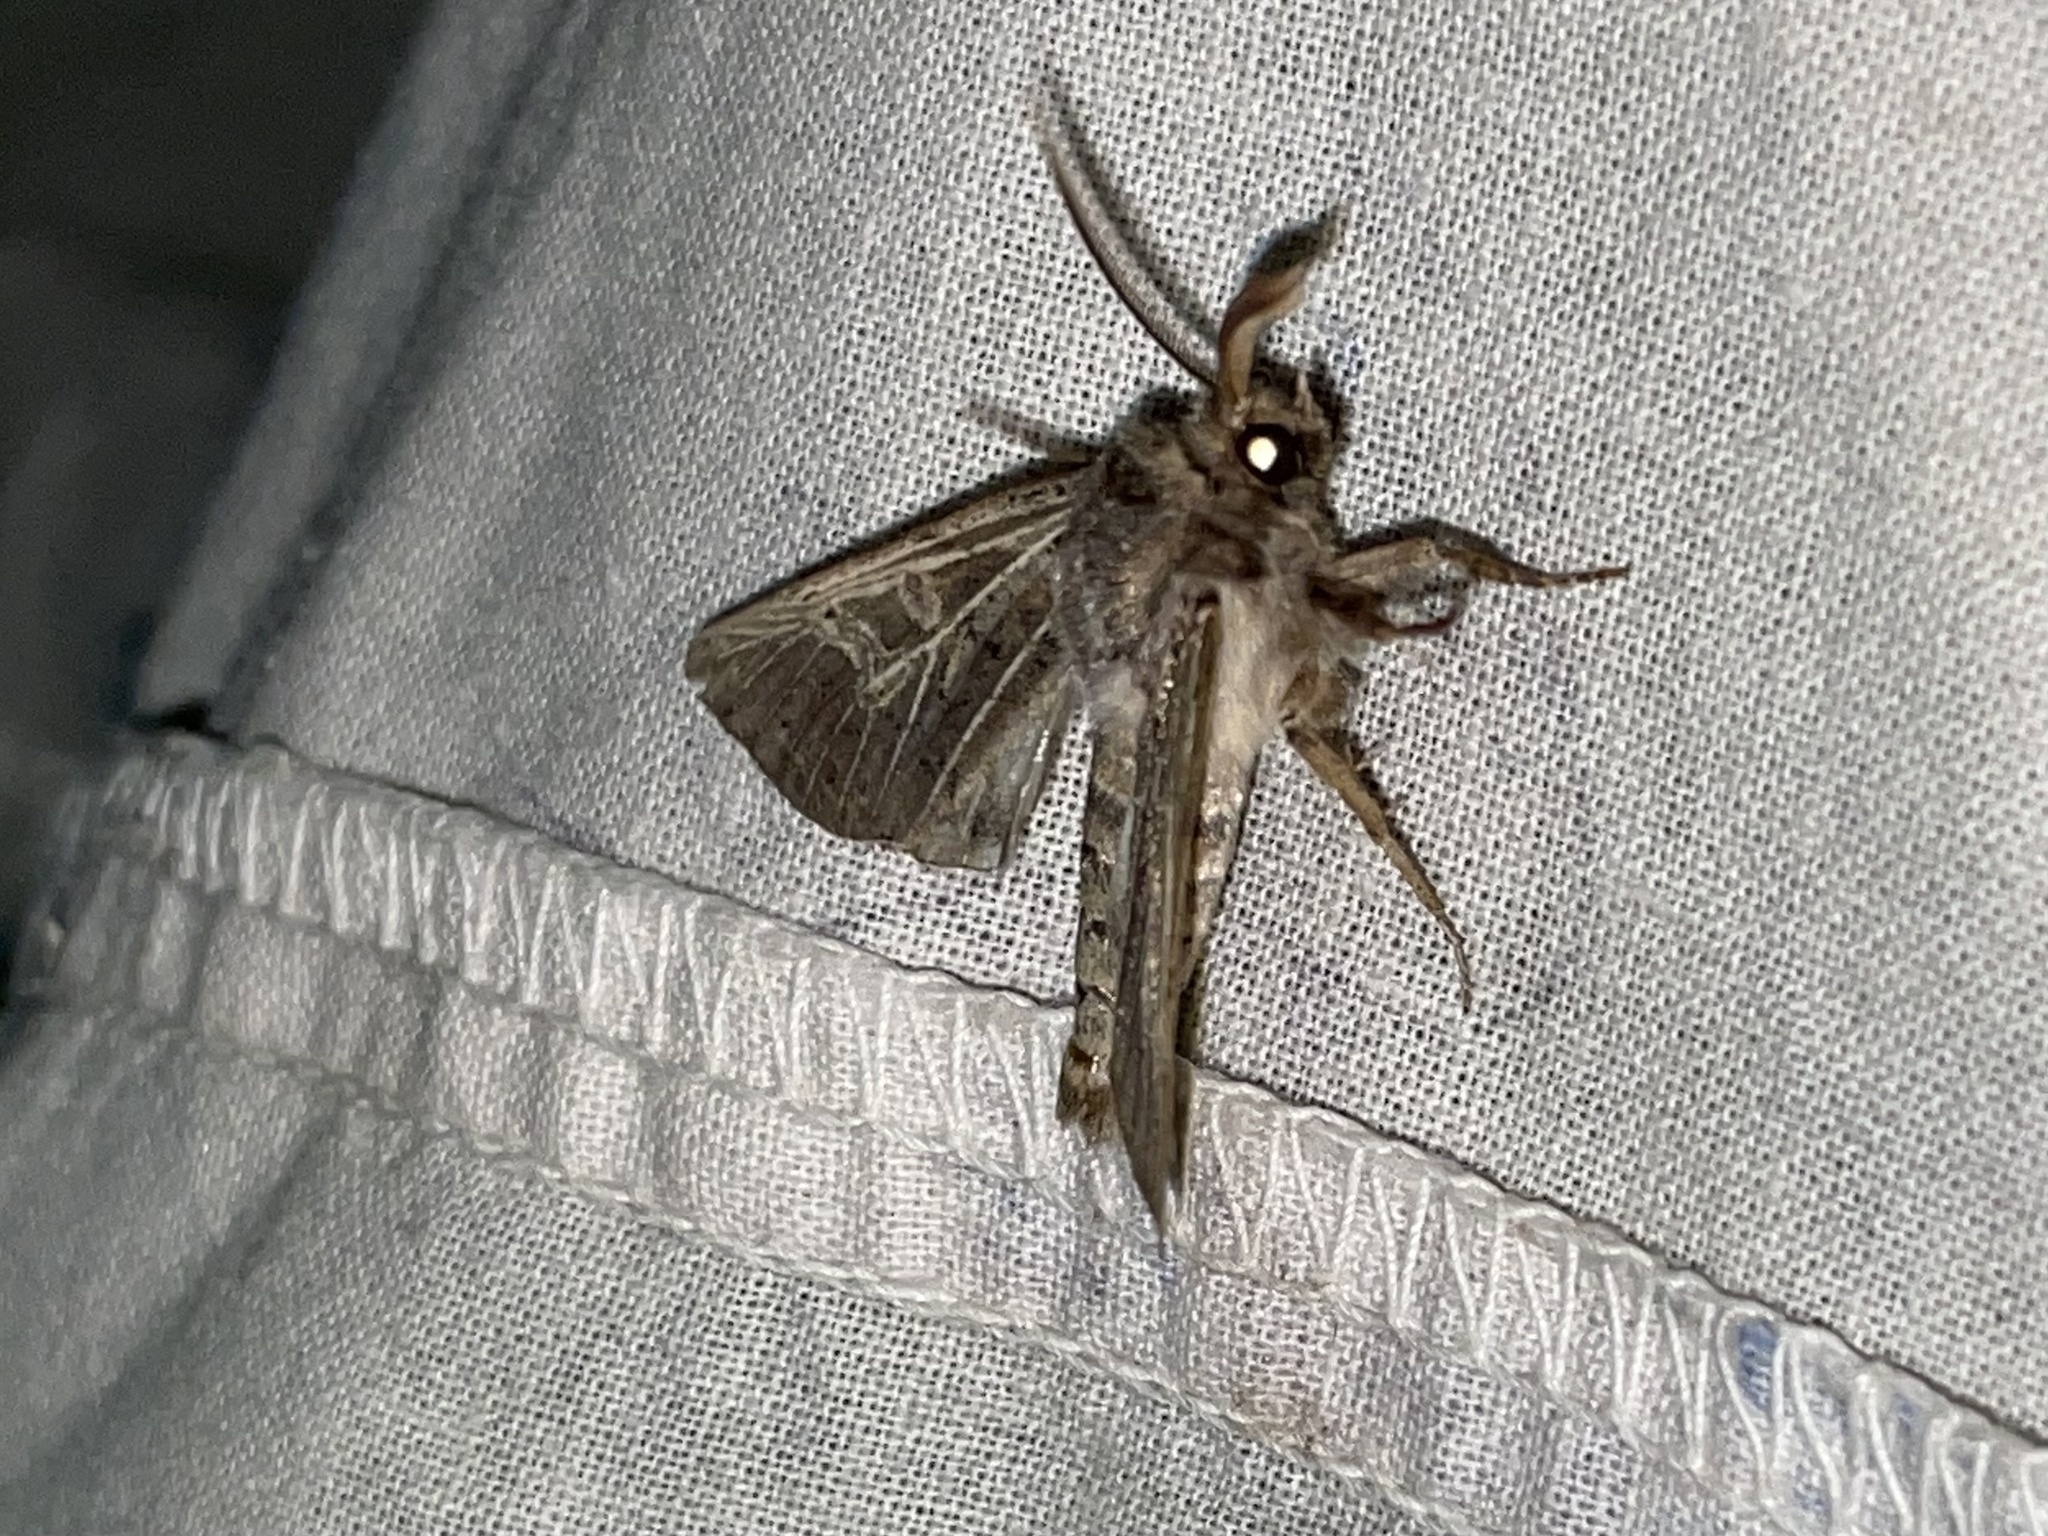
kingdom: Animalia
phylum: Arthropoda
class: Insecta
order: Lepidoptera
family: Noctuidae
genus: Tholera
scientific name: Tholera decimalis
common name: Feathered gothic
